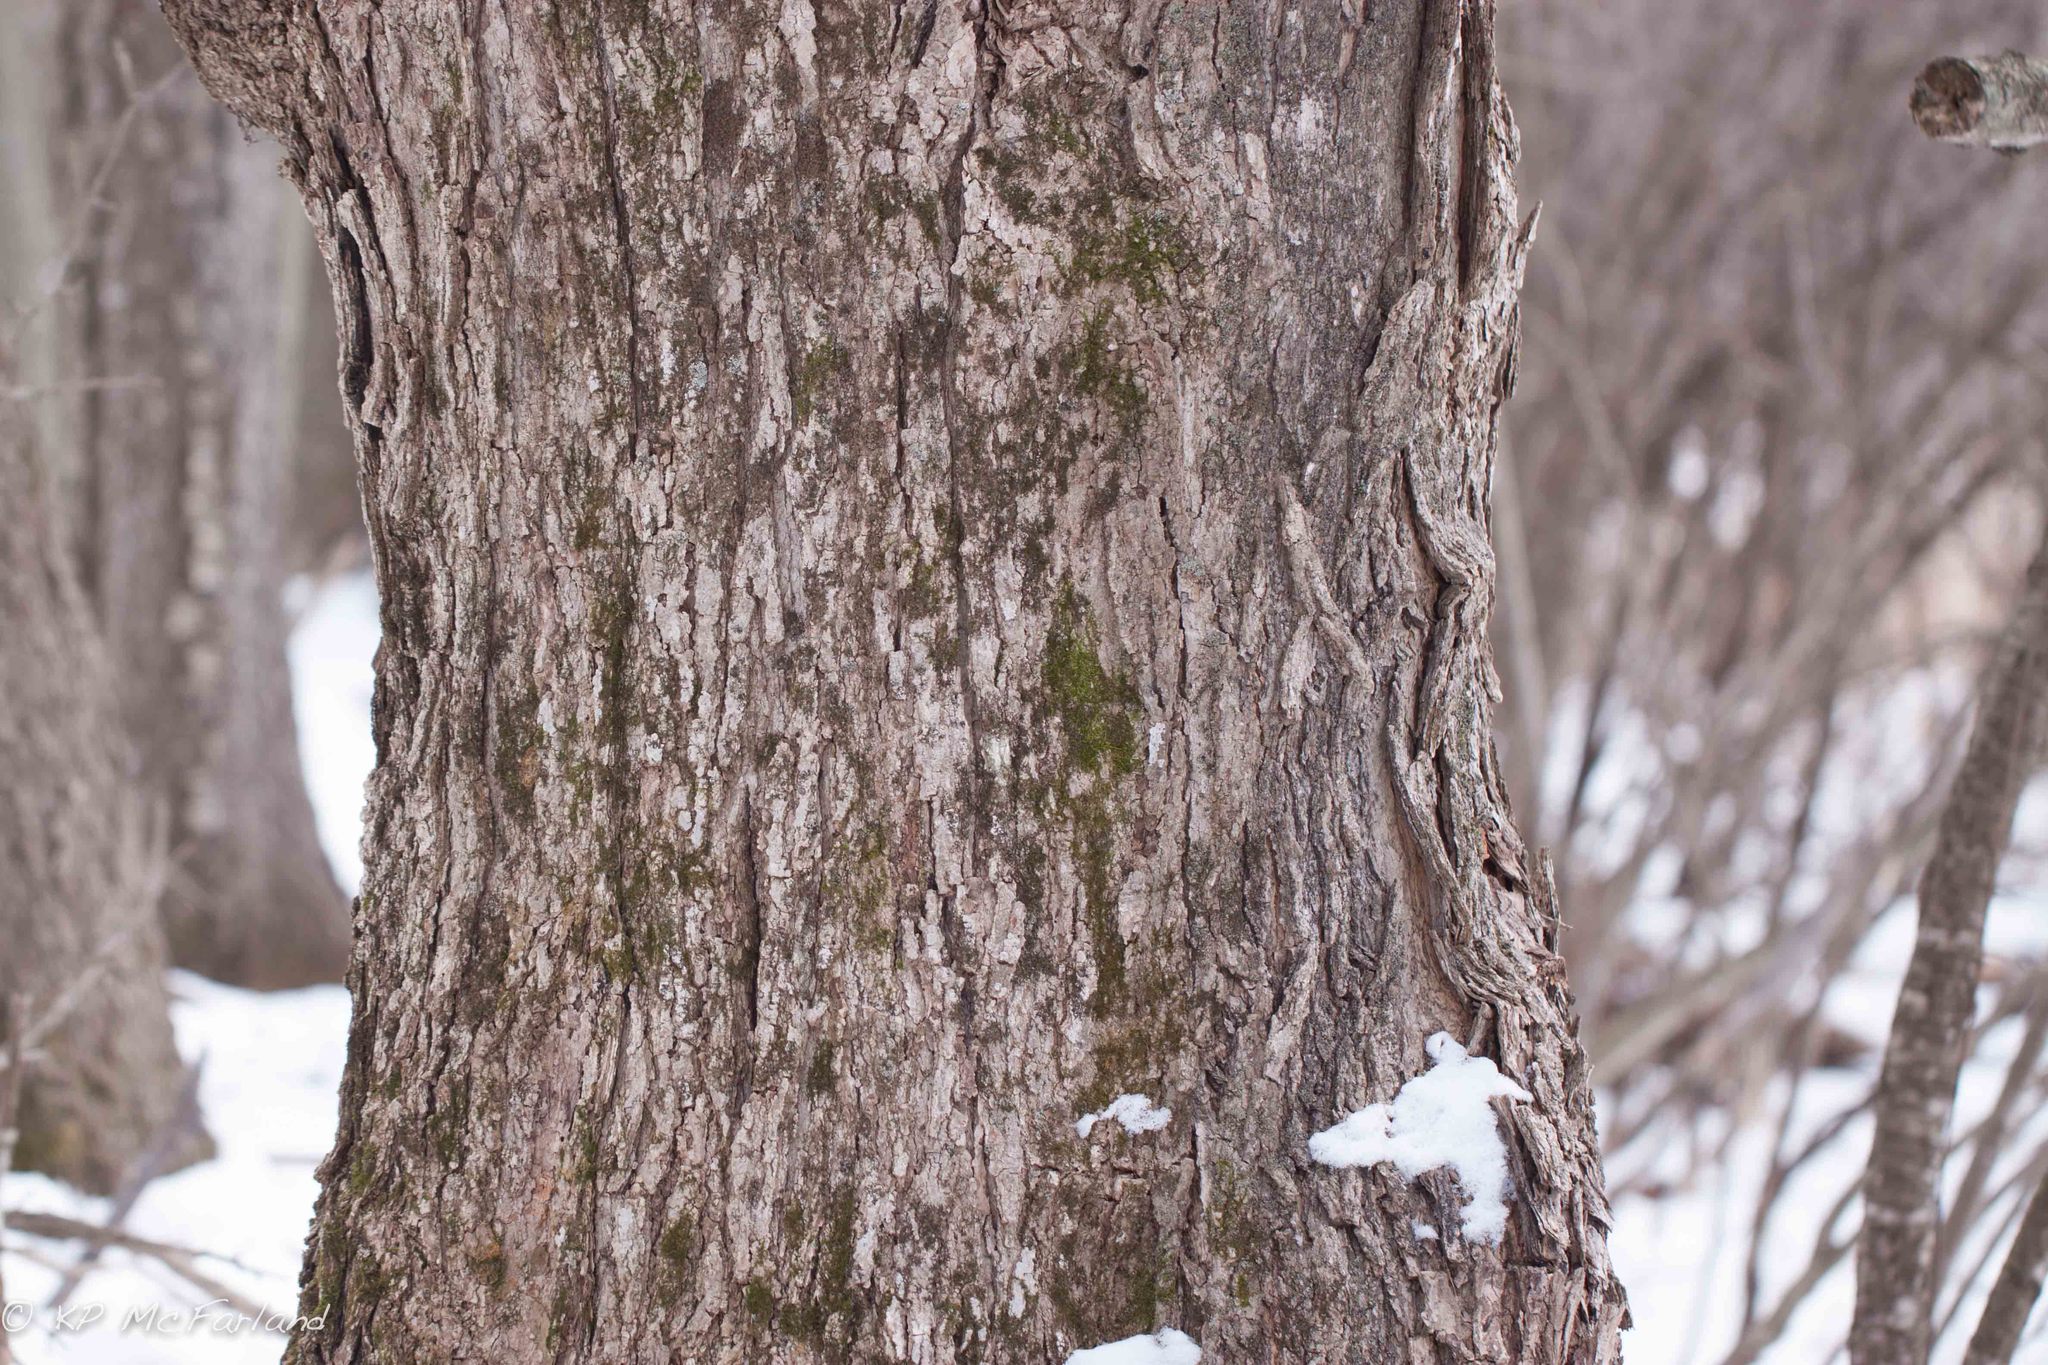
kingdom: Plantae
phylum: Tracheophyta
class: Magnoliopsida
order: Sapindales
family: Sapindaceae
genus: Acer
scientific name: Acer saccharum
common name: Sugar maple
